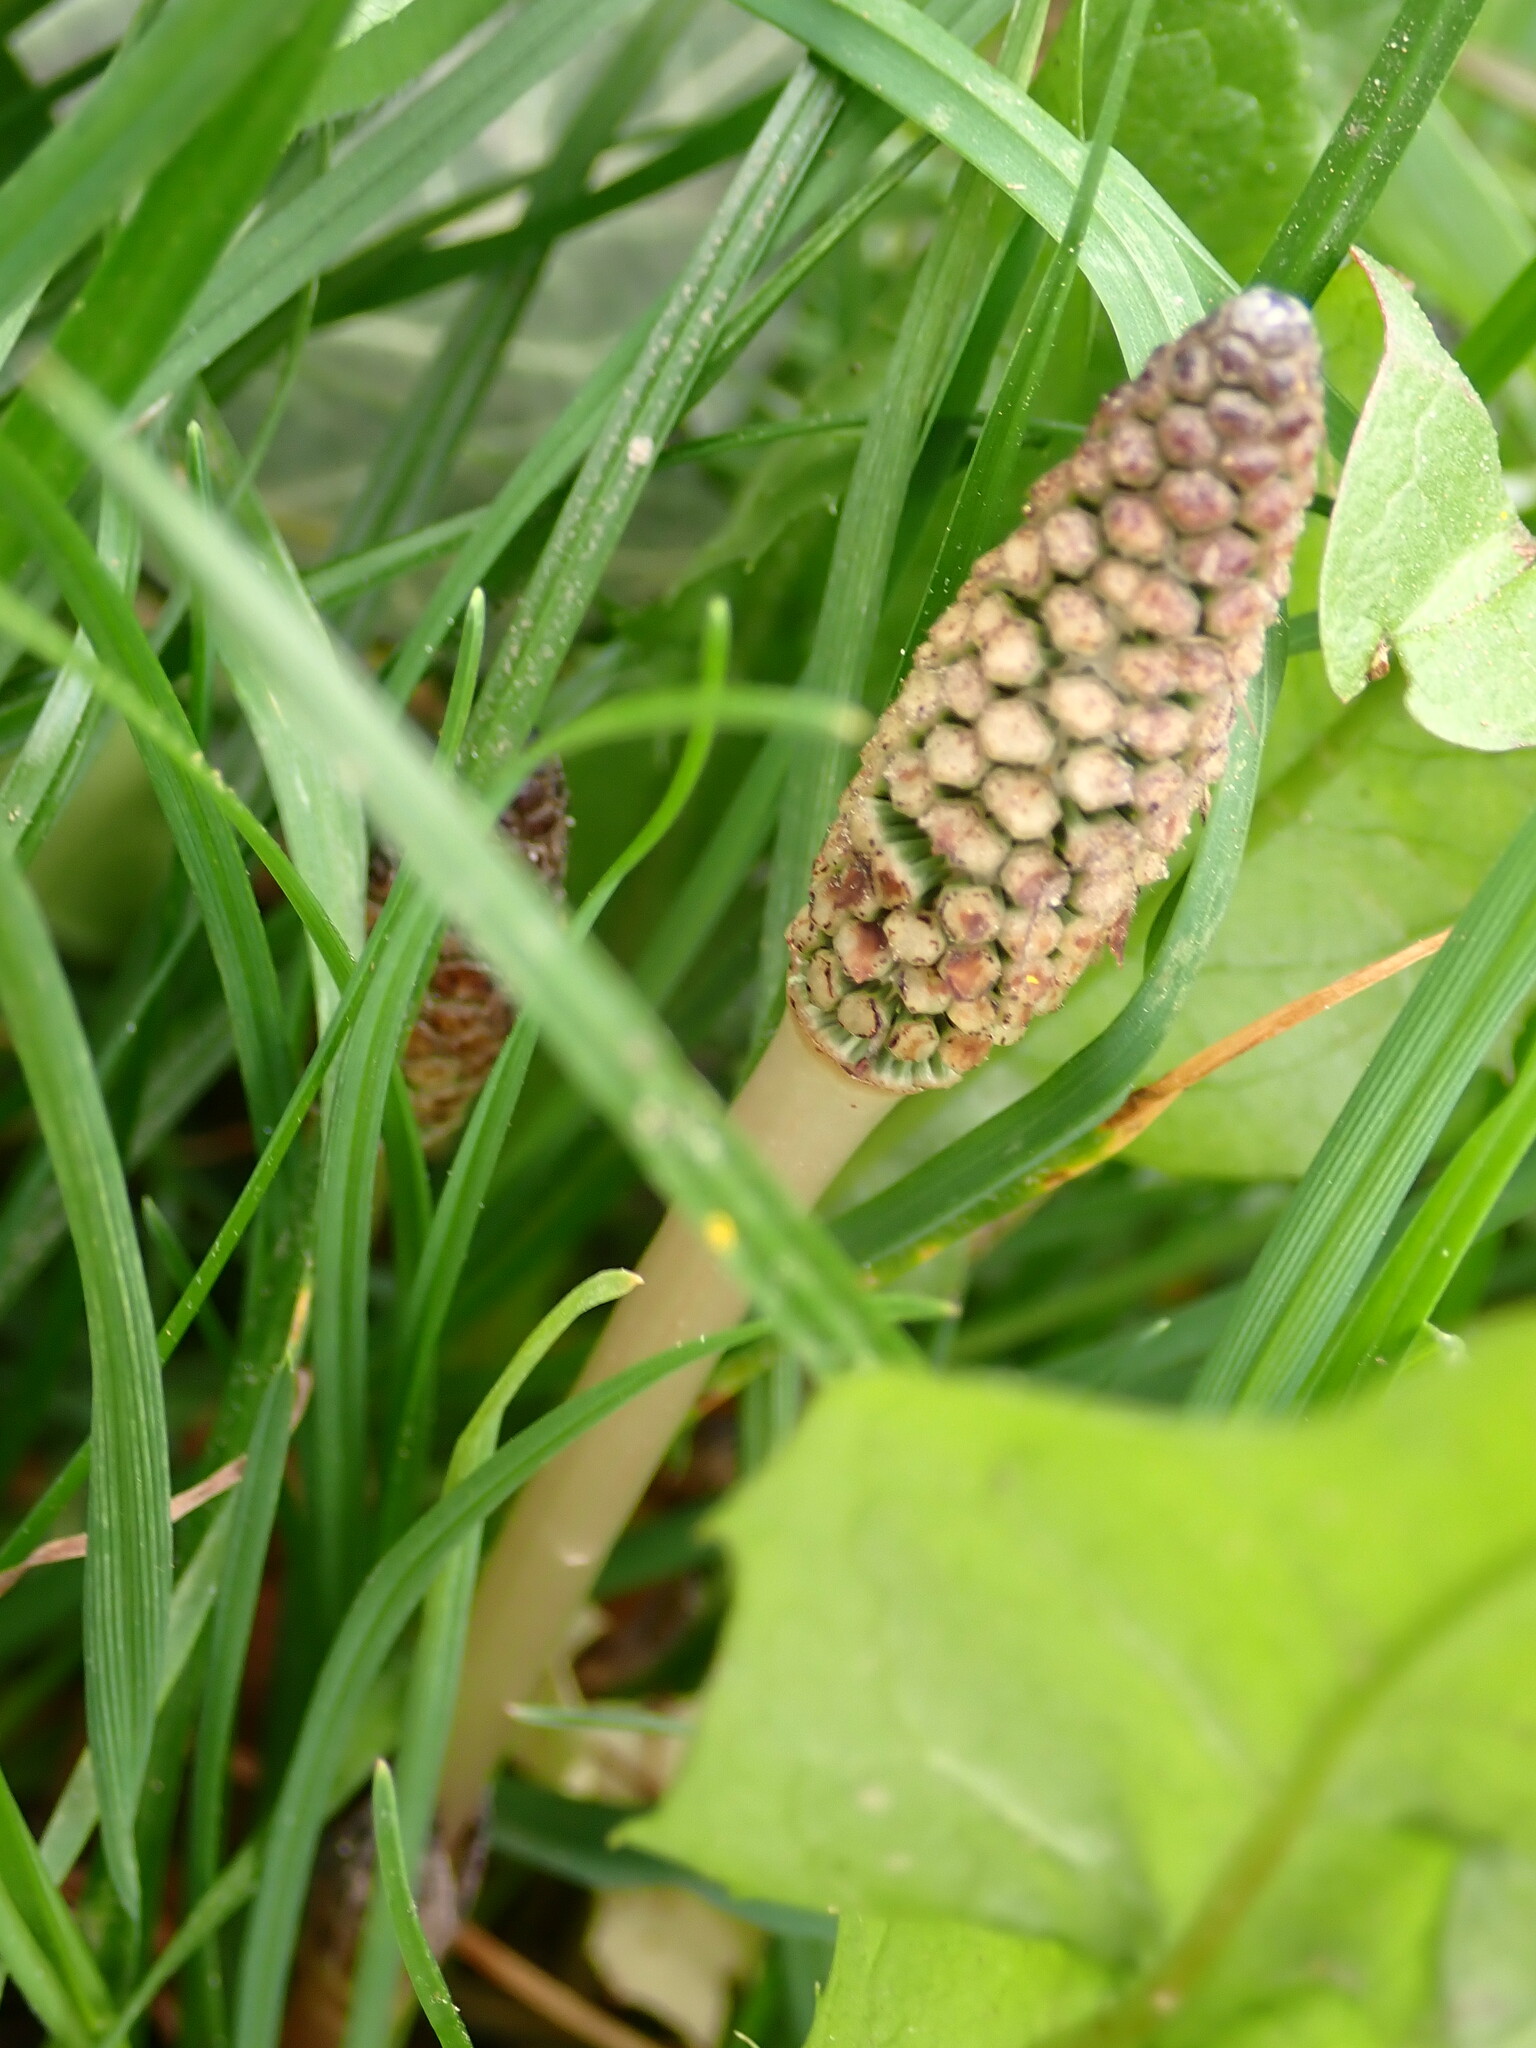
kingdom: Plantae
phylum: Tracheophyta
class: Polypodiopsida
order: Equisetales
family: Equisetaceae
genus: Equisetum
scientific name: Equisetum arvense
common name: Field horsetail
